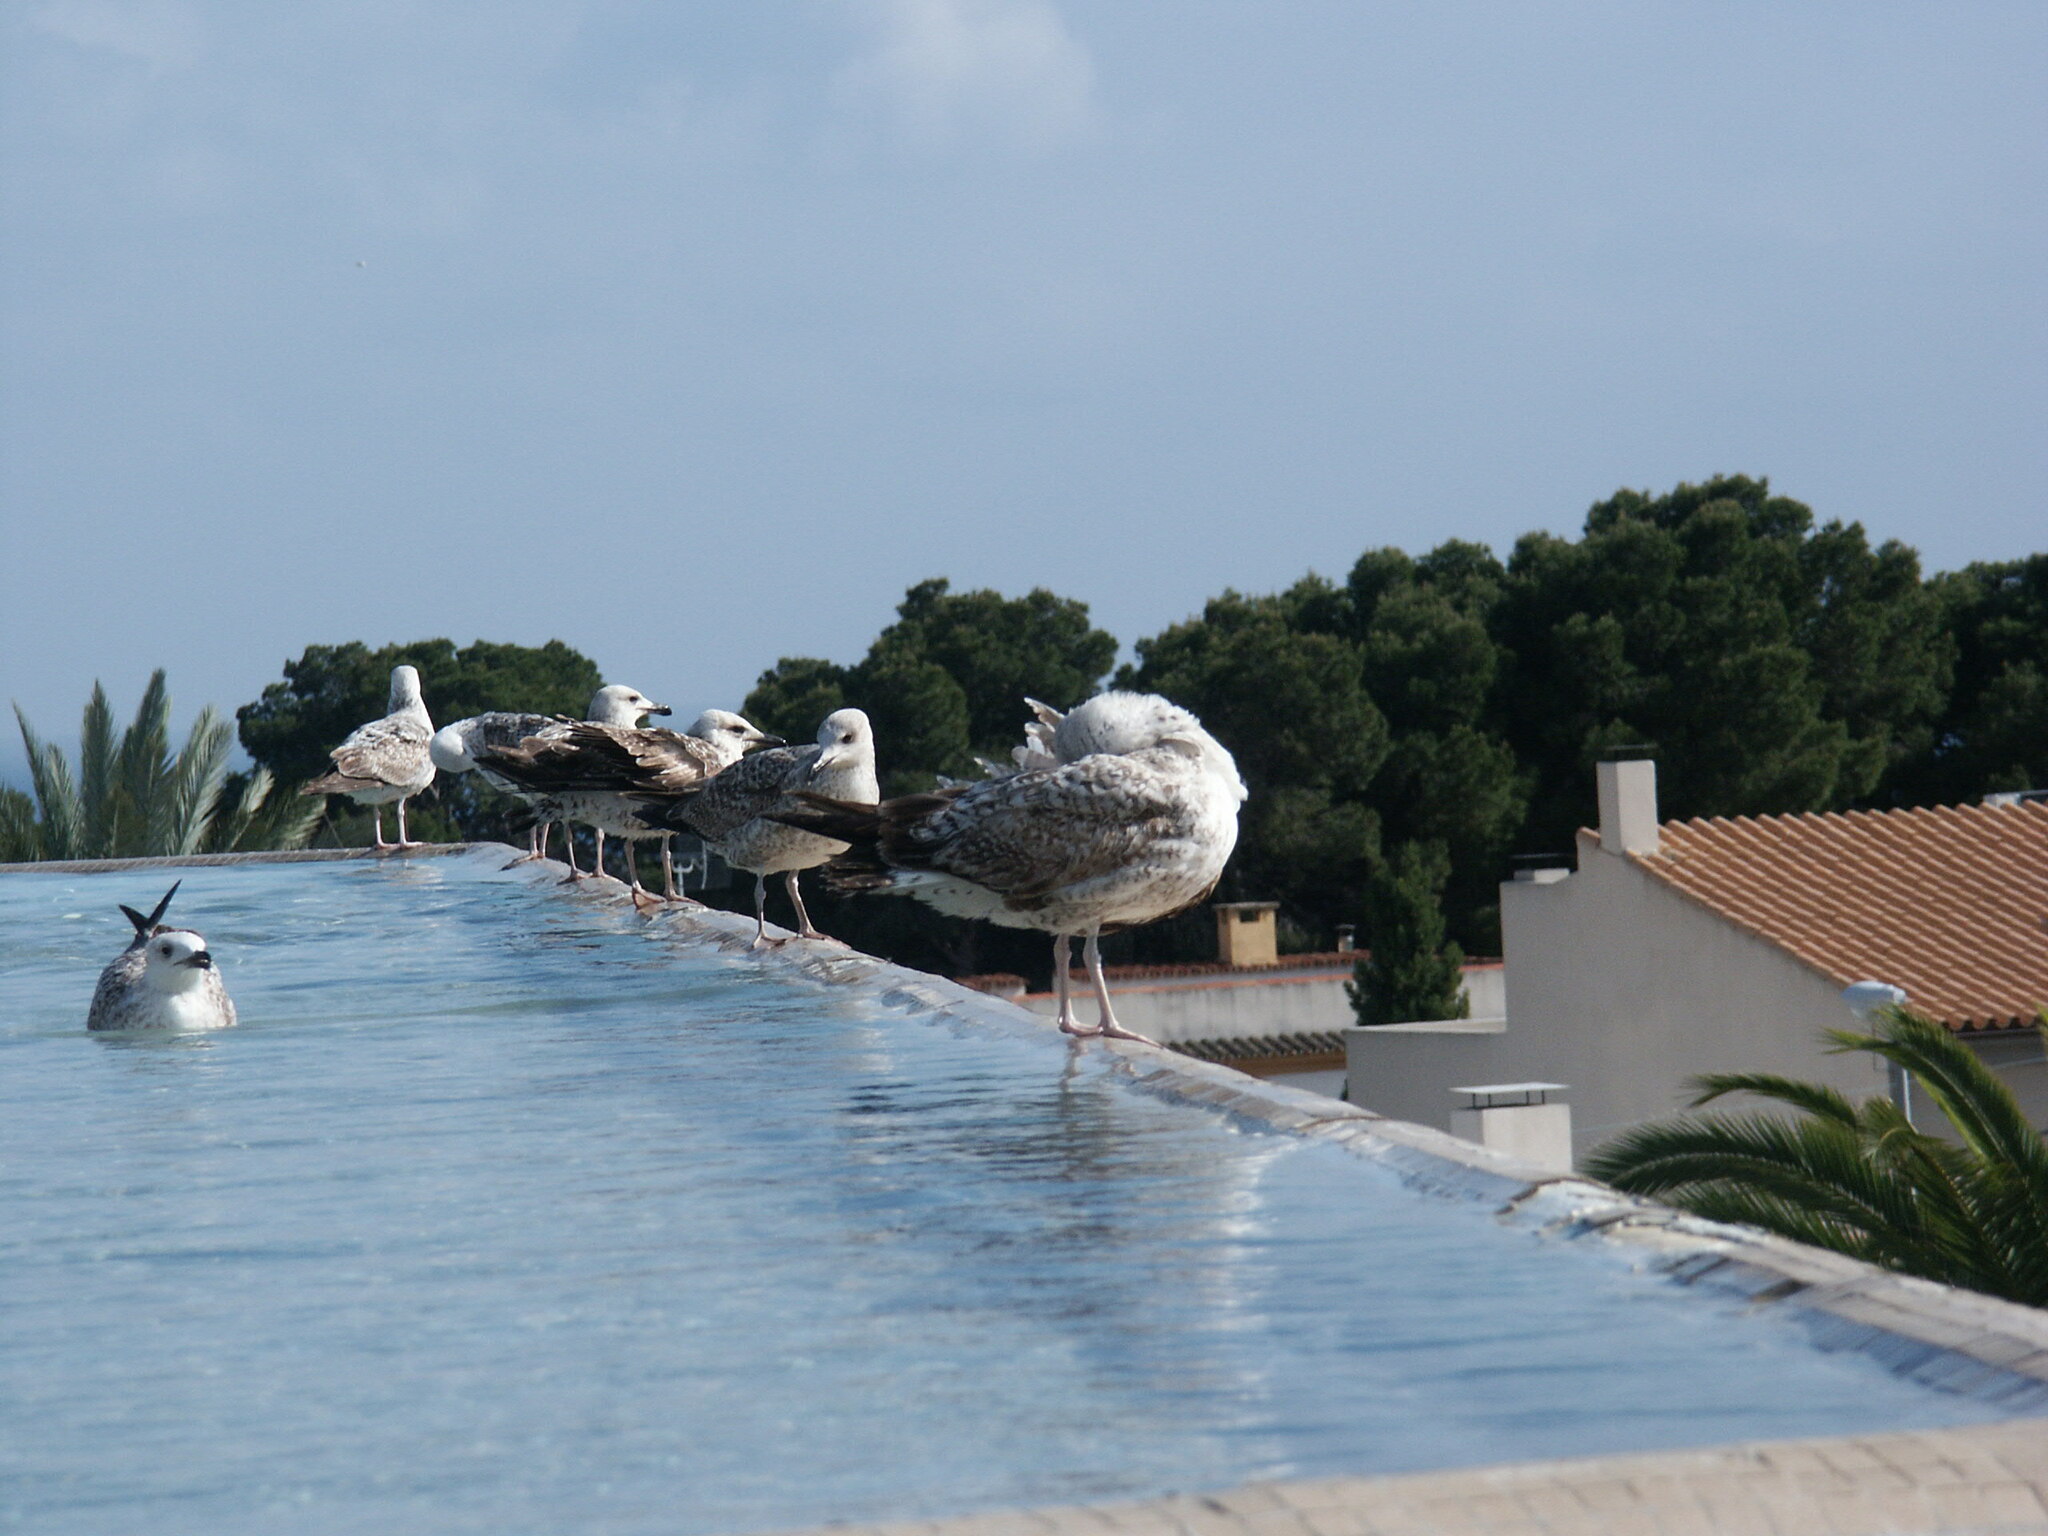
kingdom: Animalia
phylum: Chordata
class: Aves
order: Charadriiformes
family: Laridae
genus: Larus
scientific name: Larus michahellis
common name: Yellow-legged gull
